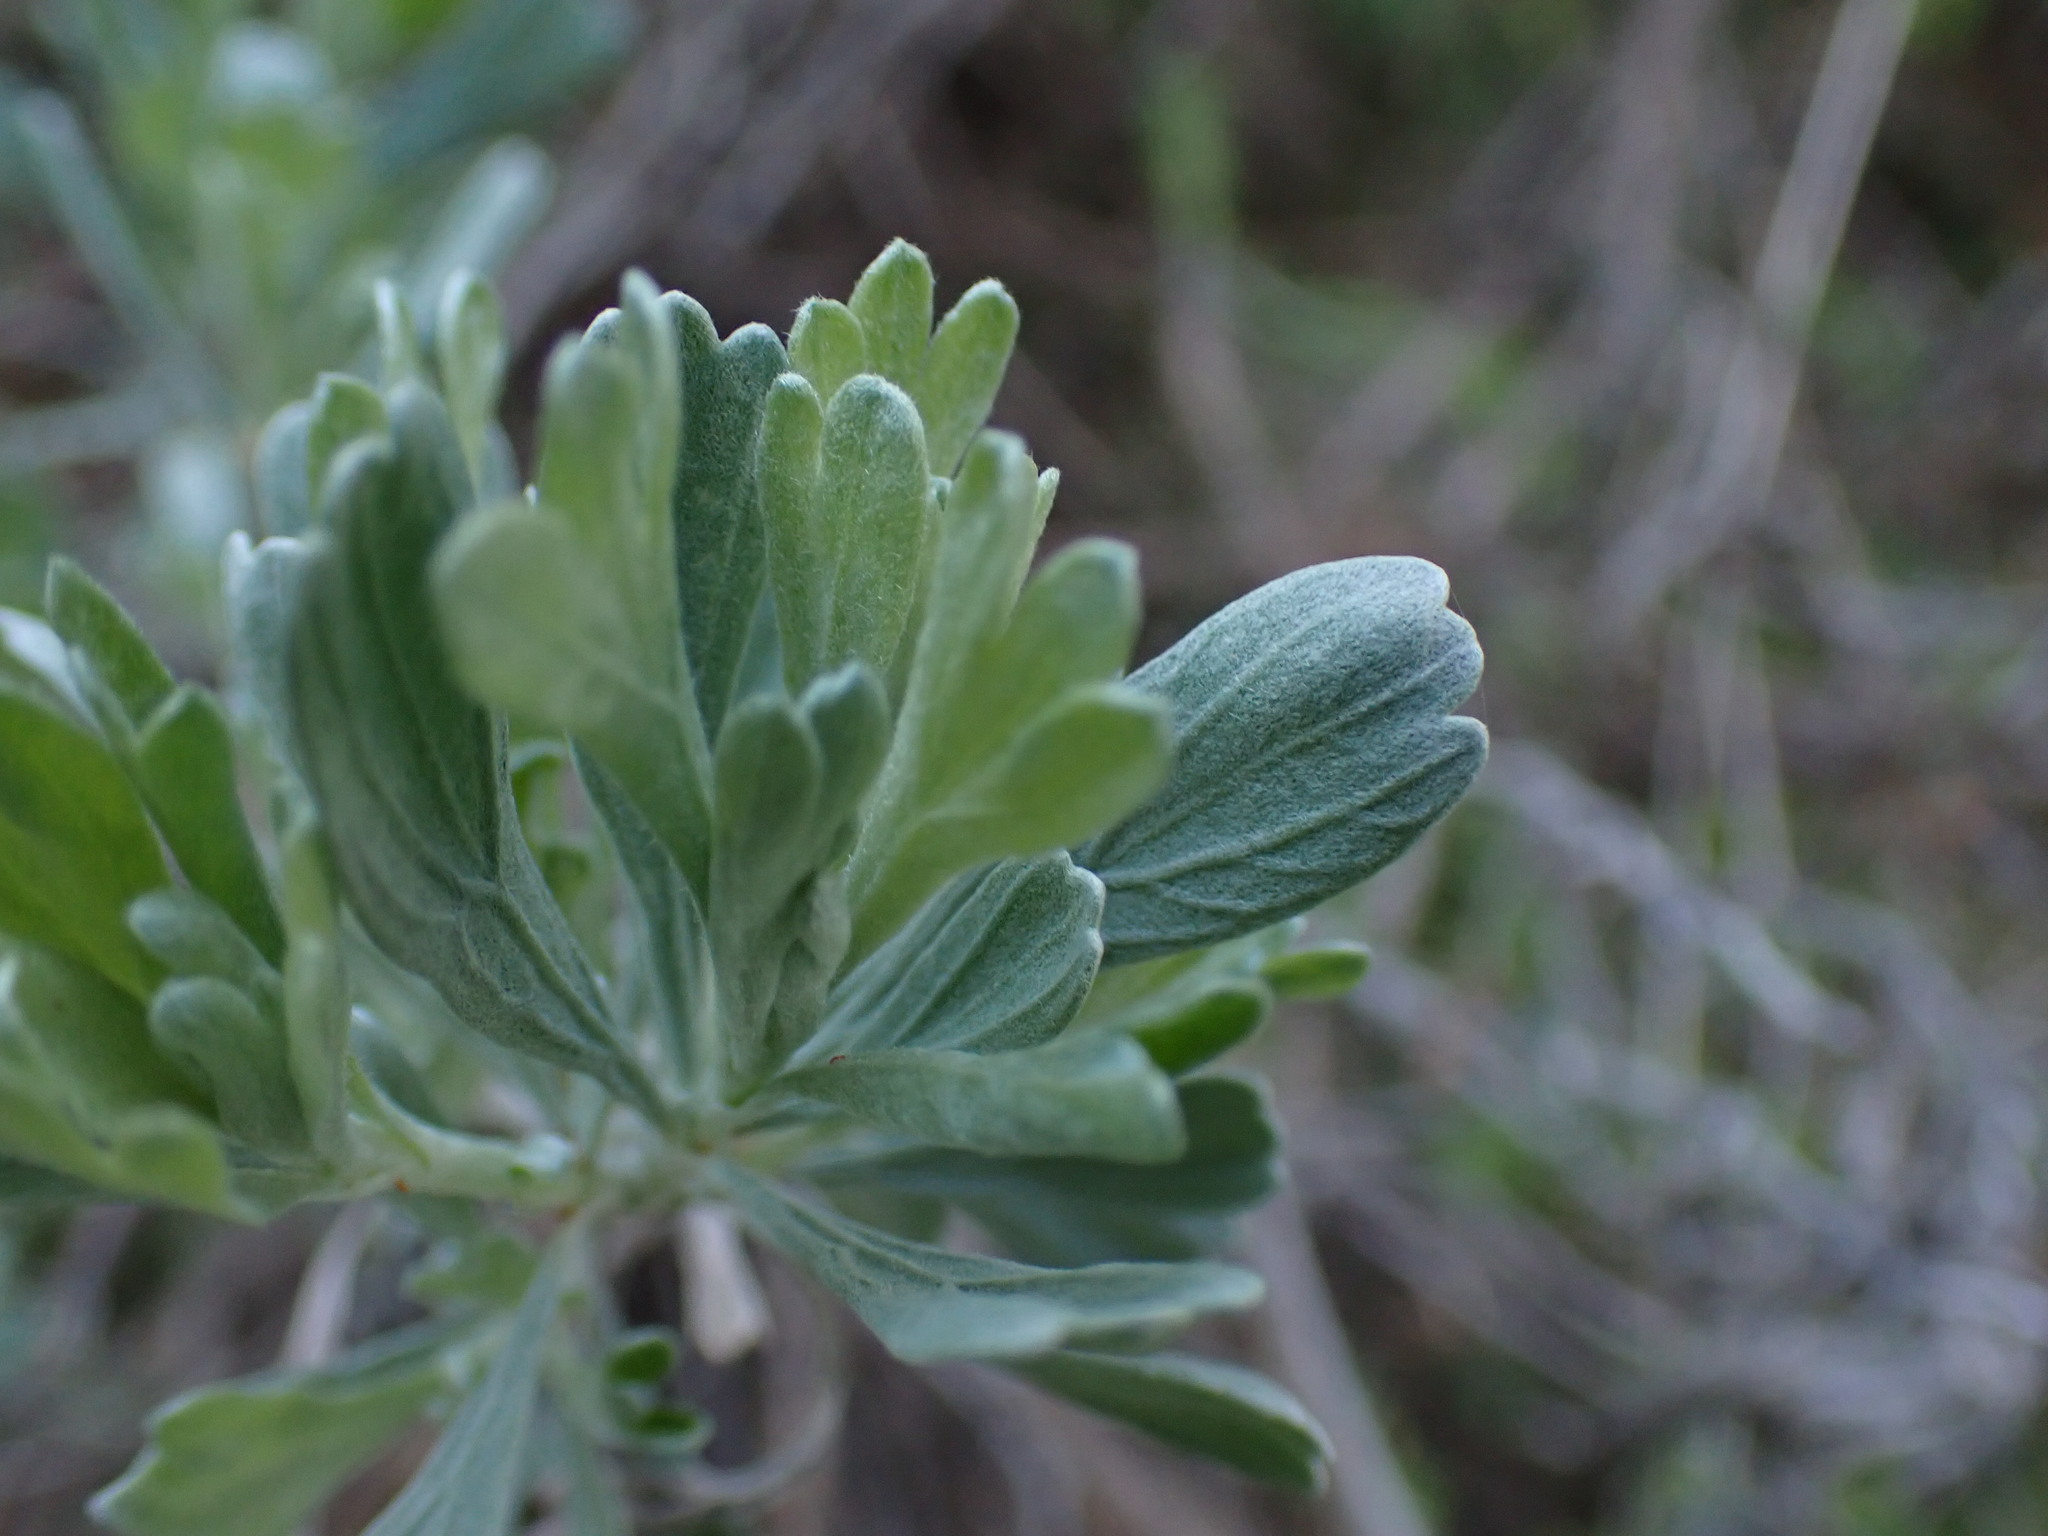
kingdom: Plantae
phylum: Tracheophyta
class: Magnoliopsida
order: Asterales
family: Asteraceae
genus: Artemisia
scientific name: Artemisia tridentata
